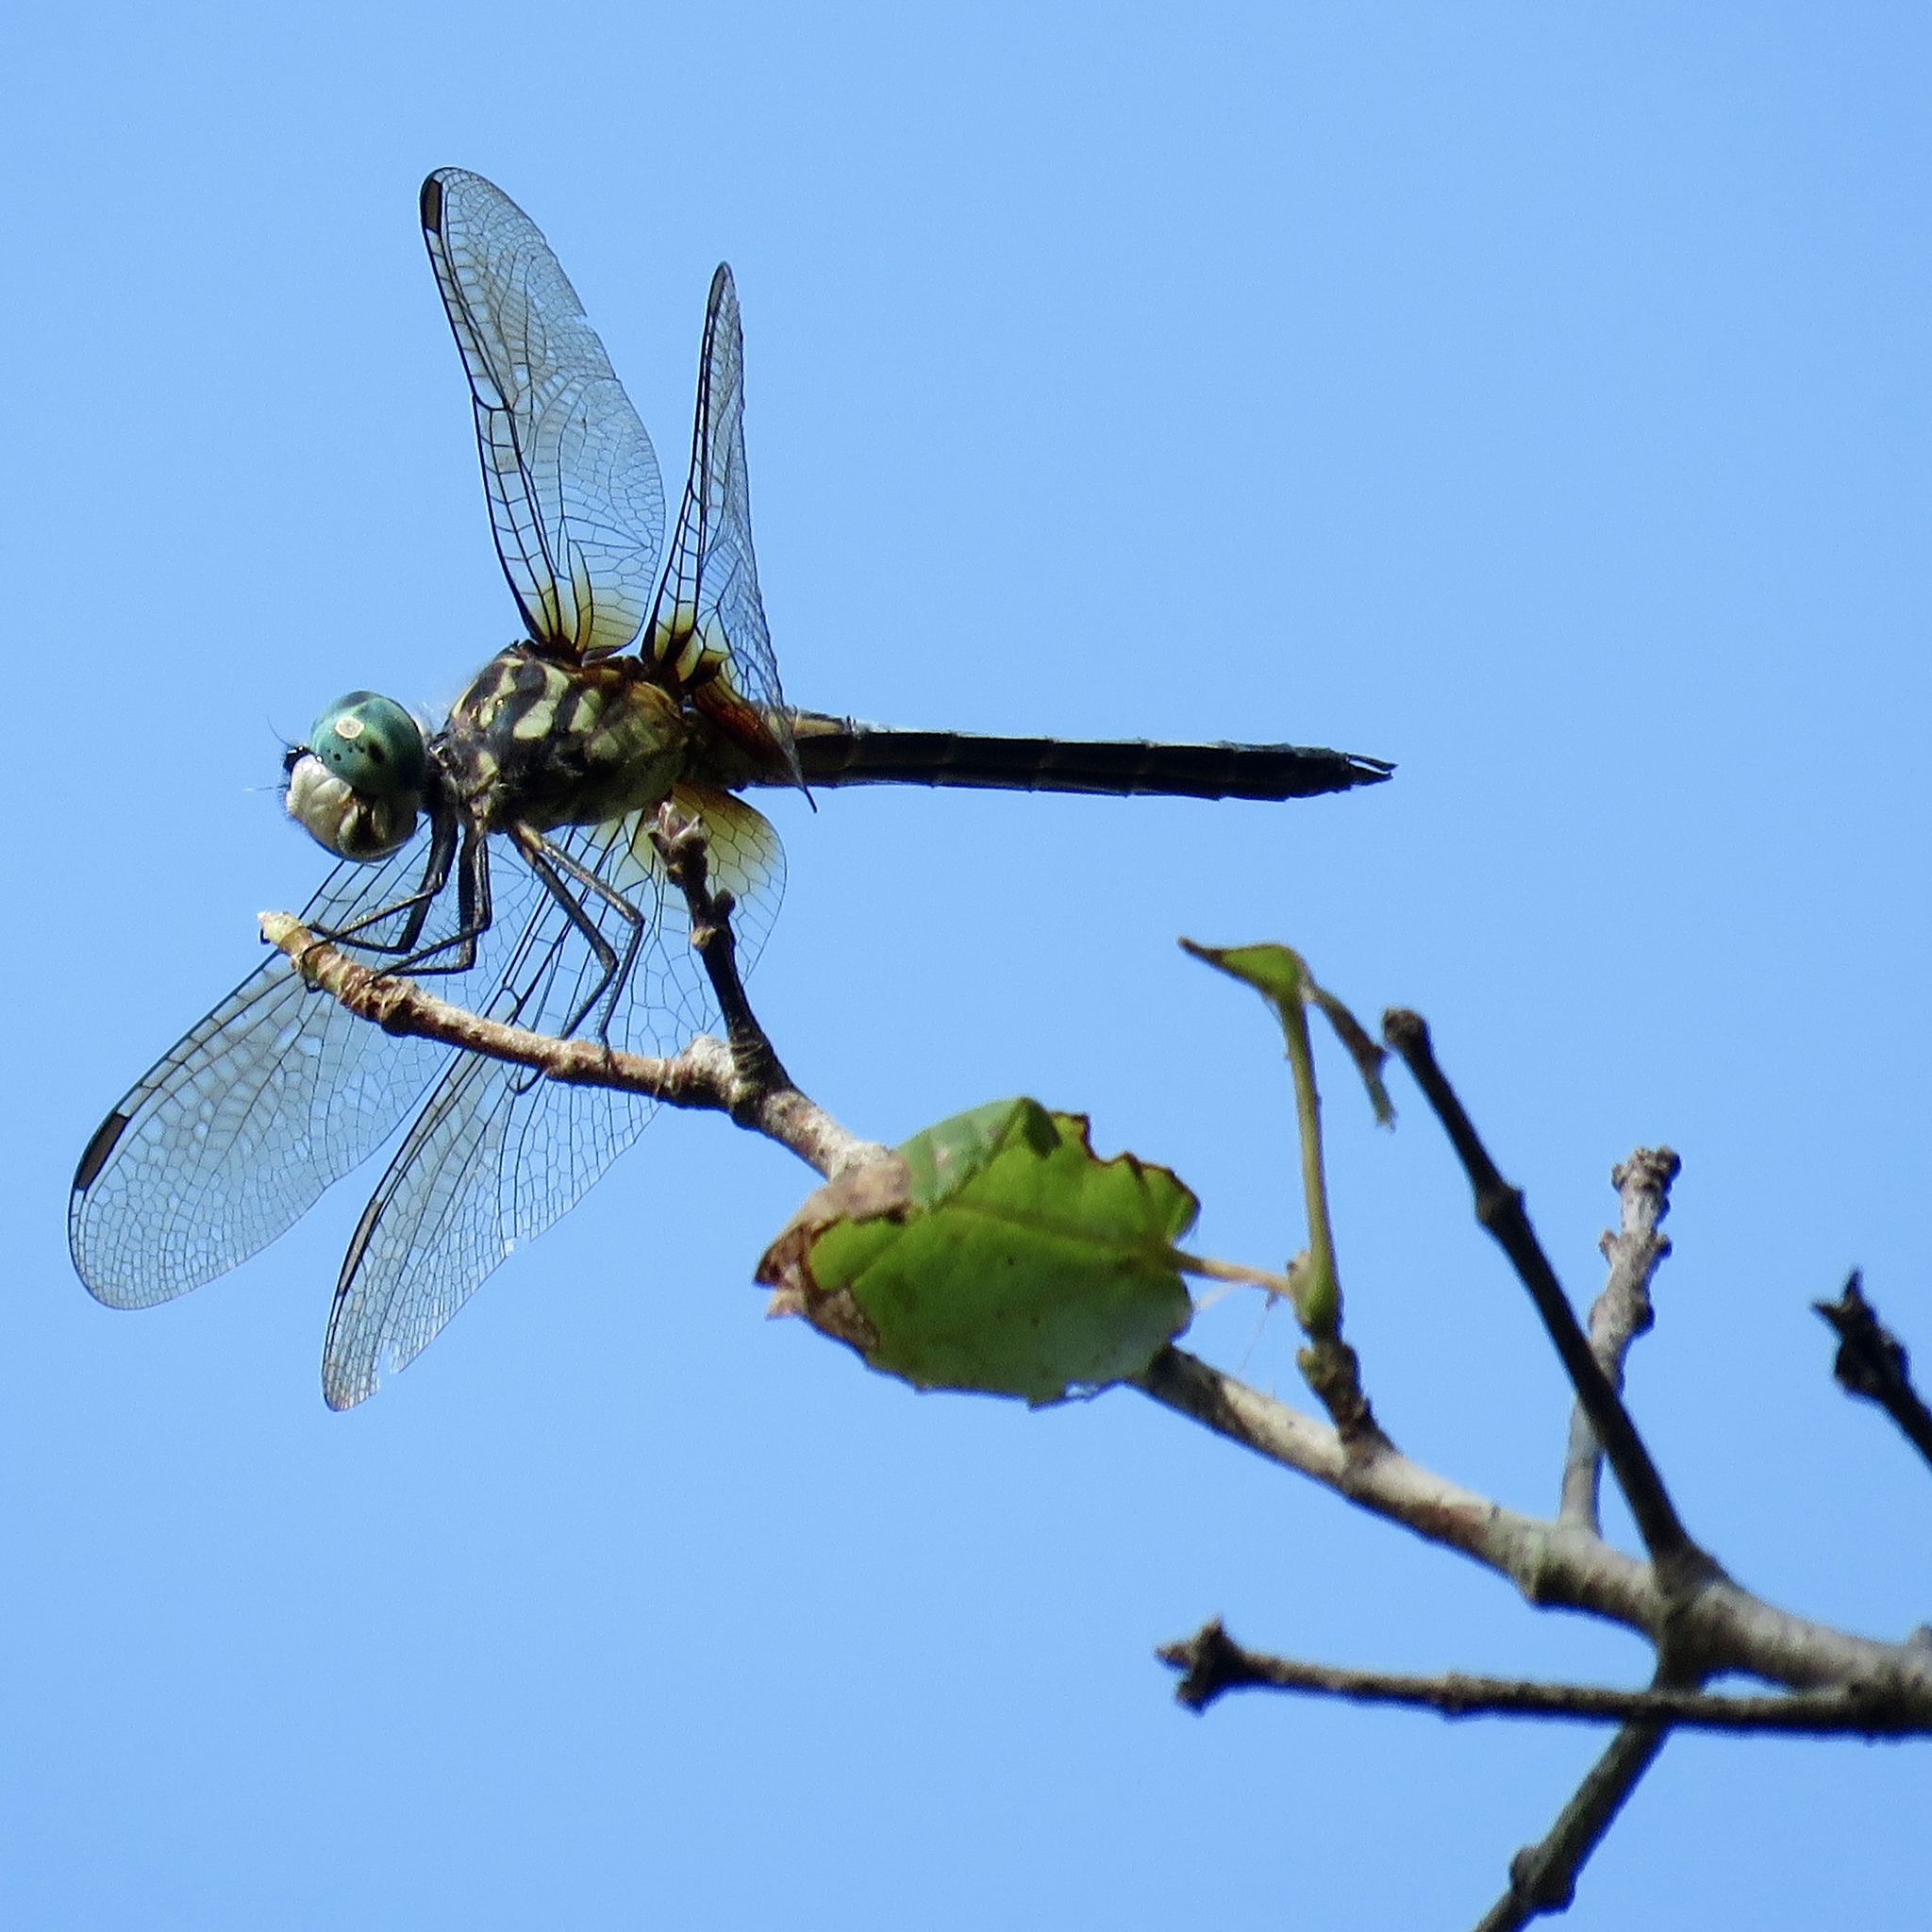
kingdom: Animalia
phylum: Arthropoda
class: Insecta
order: Odonata
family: Libellulidae
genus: Pachydiplax
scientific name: Pachydiplax longipennis
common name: Blue dasher
